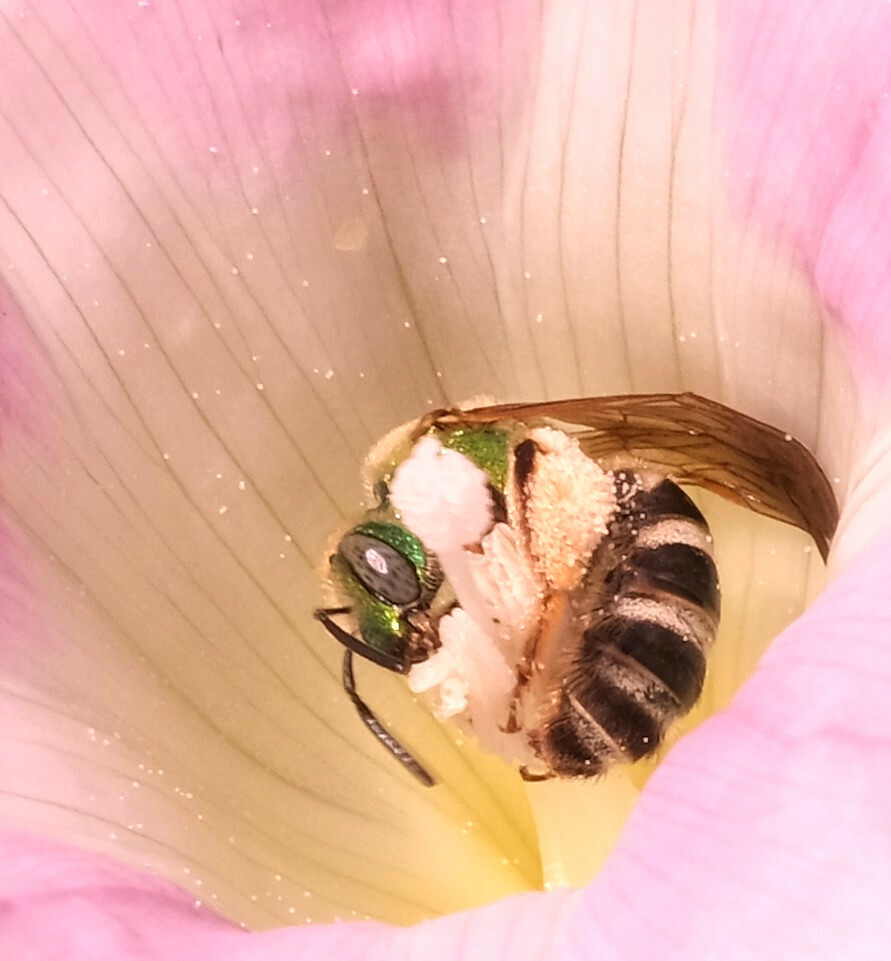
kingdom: Animalia
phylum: Arthropoda
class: Insecta
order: Hymenoptera
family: Halictidae
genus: Agapostemon
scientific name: Agapostemon virescens
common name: Bicolored striped sweat bee
